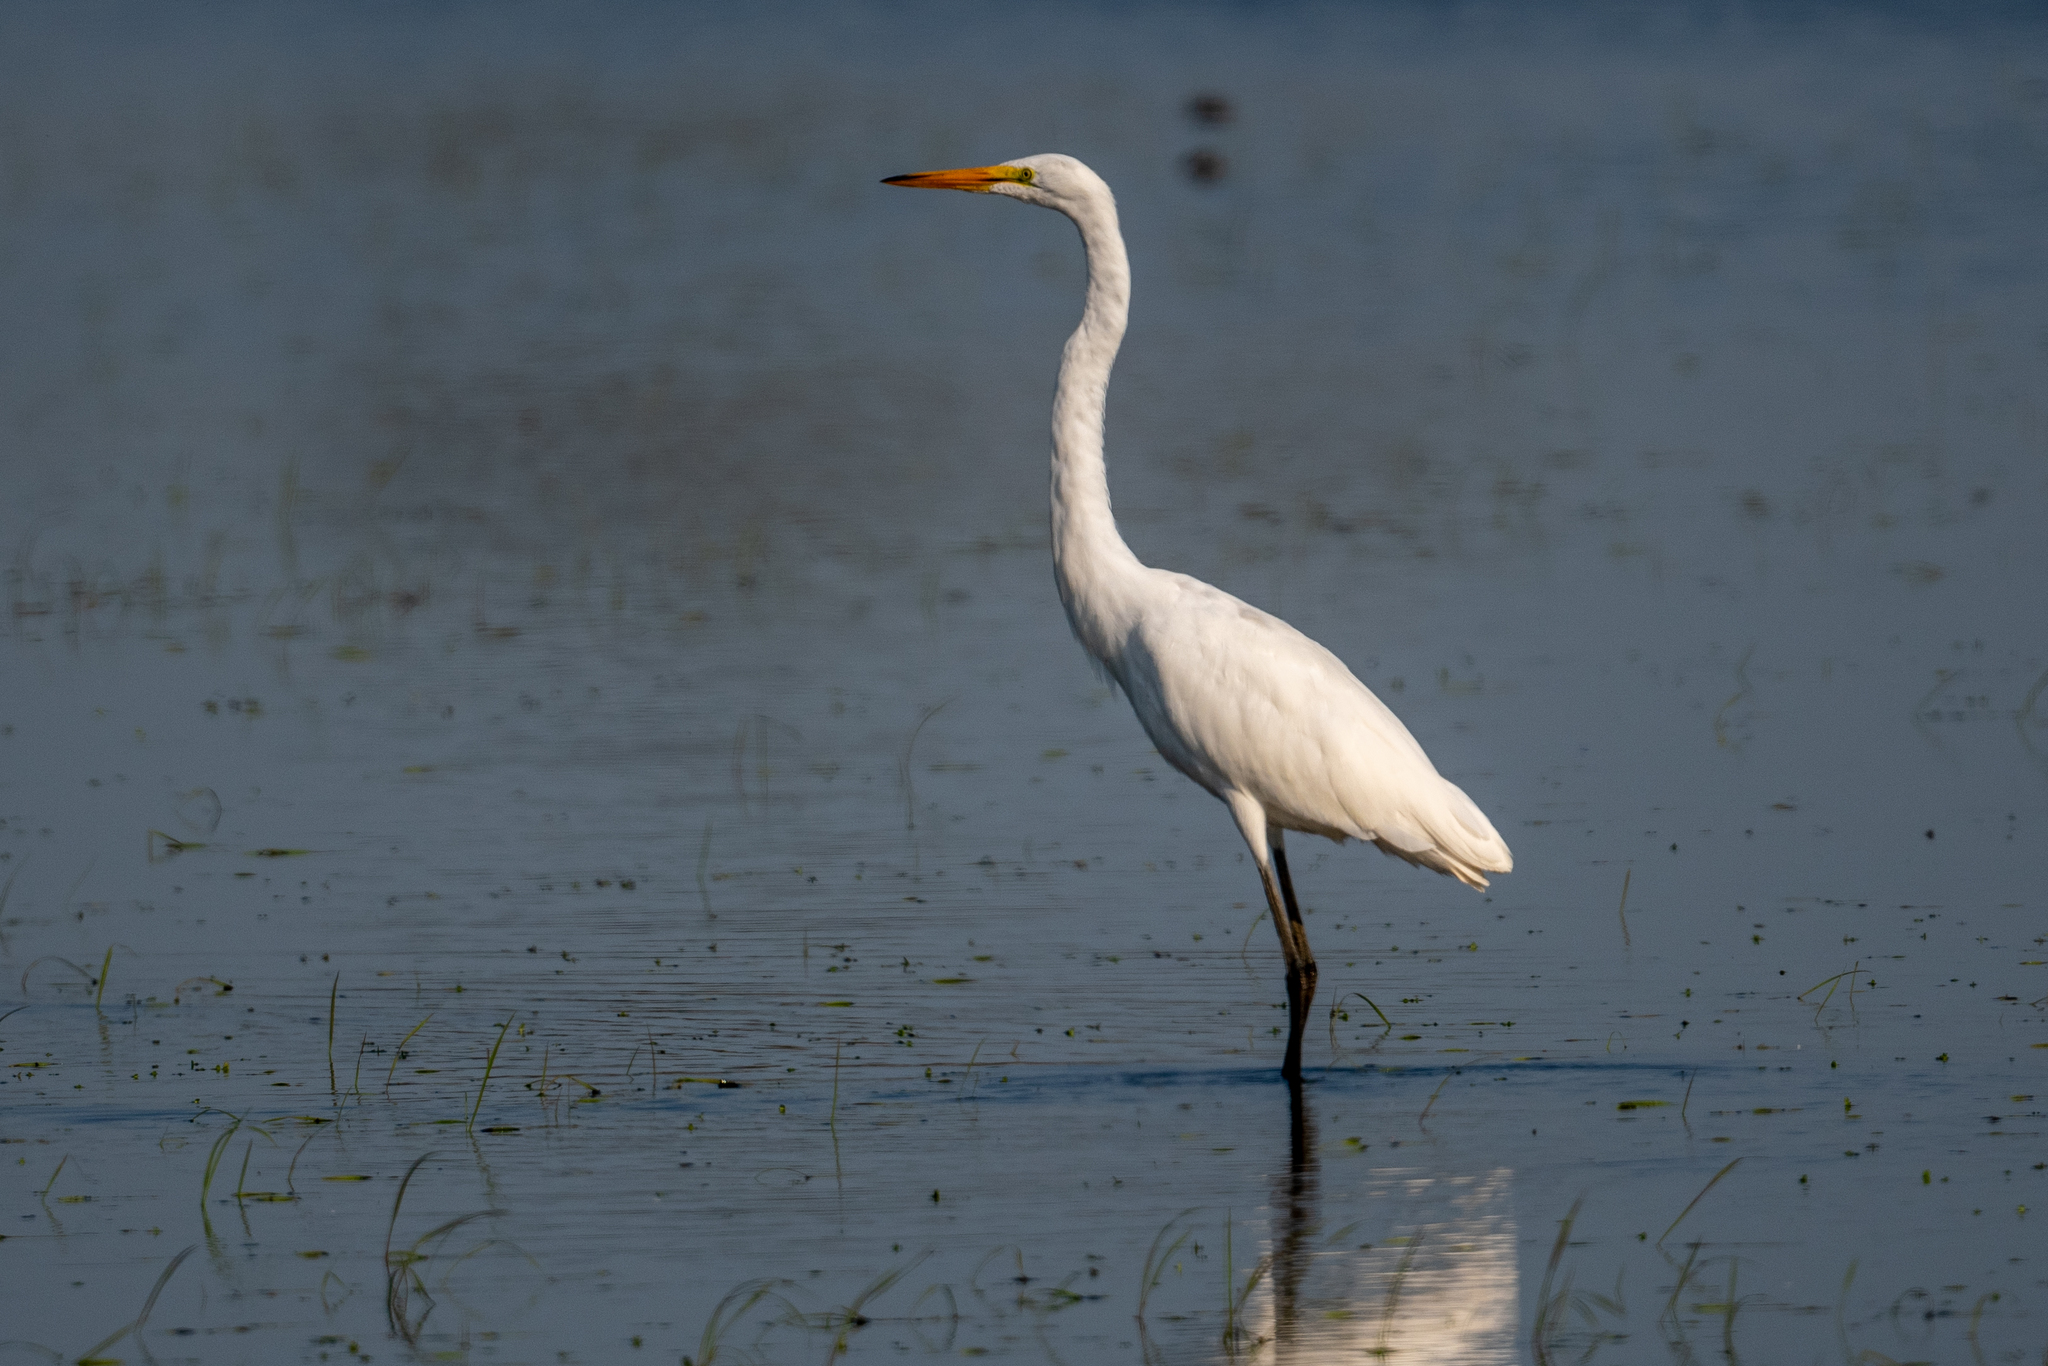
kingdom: Animalia
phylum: Chordata
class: Aves
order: Pelecaniformes
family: Ardeidae
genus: Ardea
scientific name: Ardea alba
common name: Great egret
